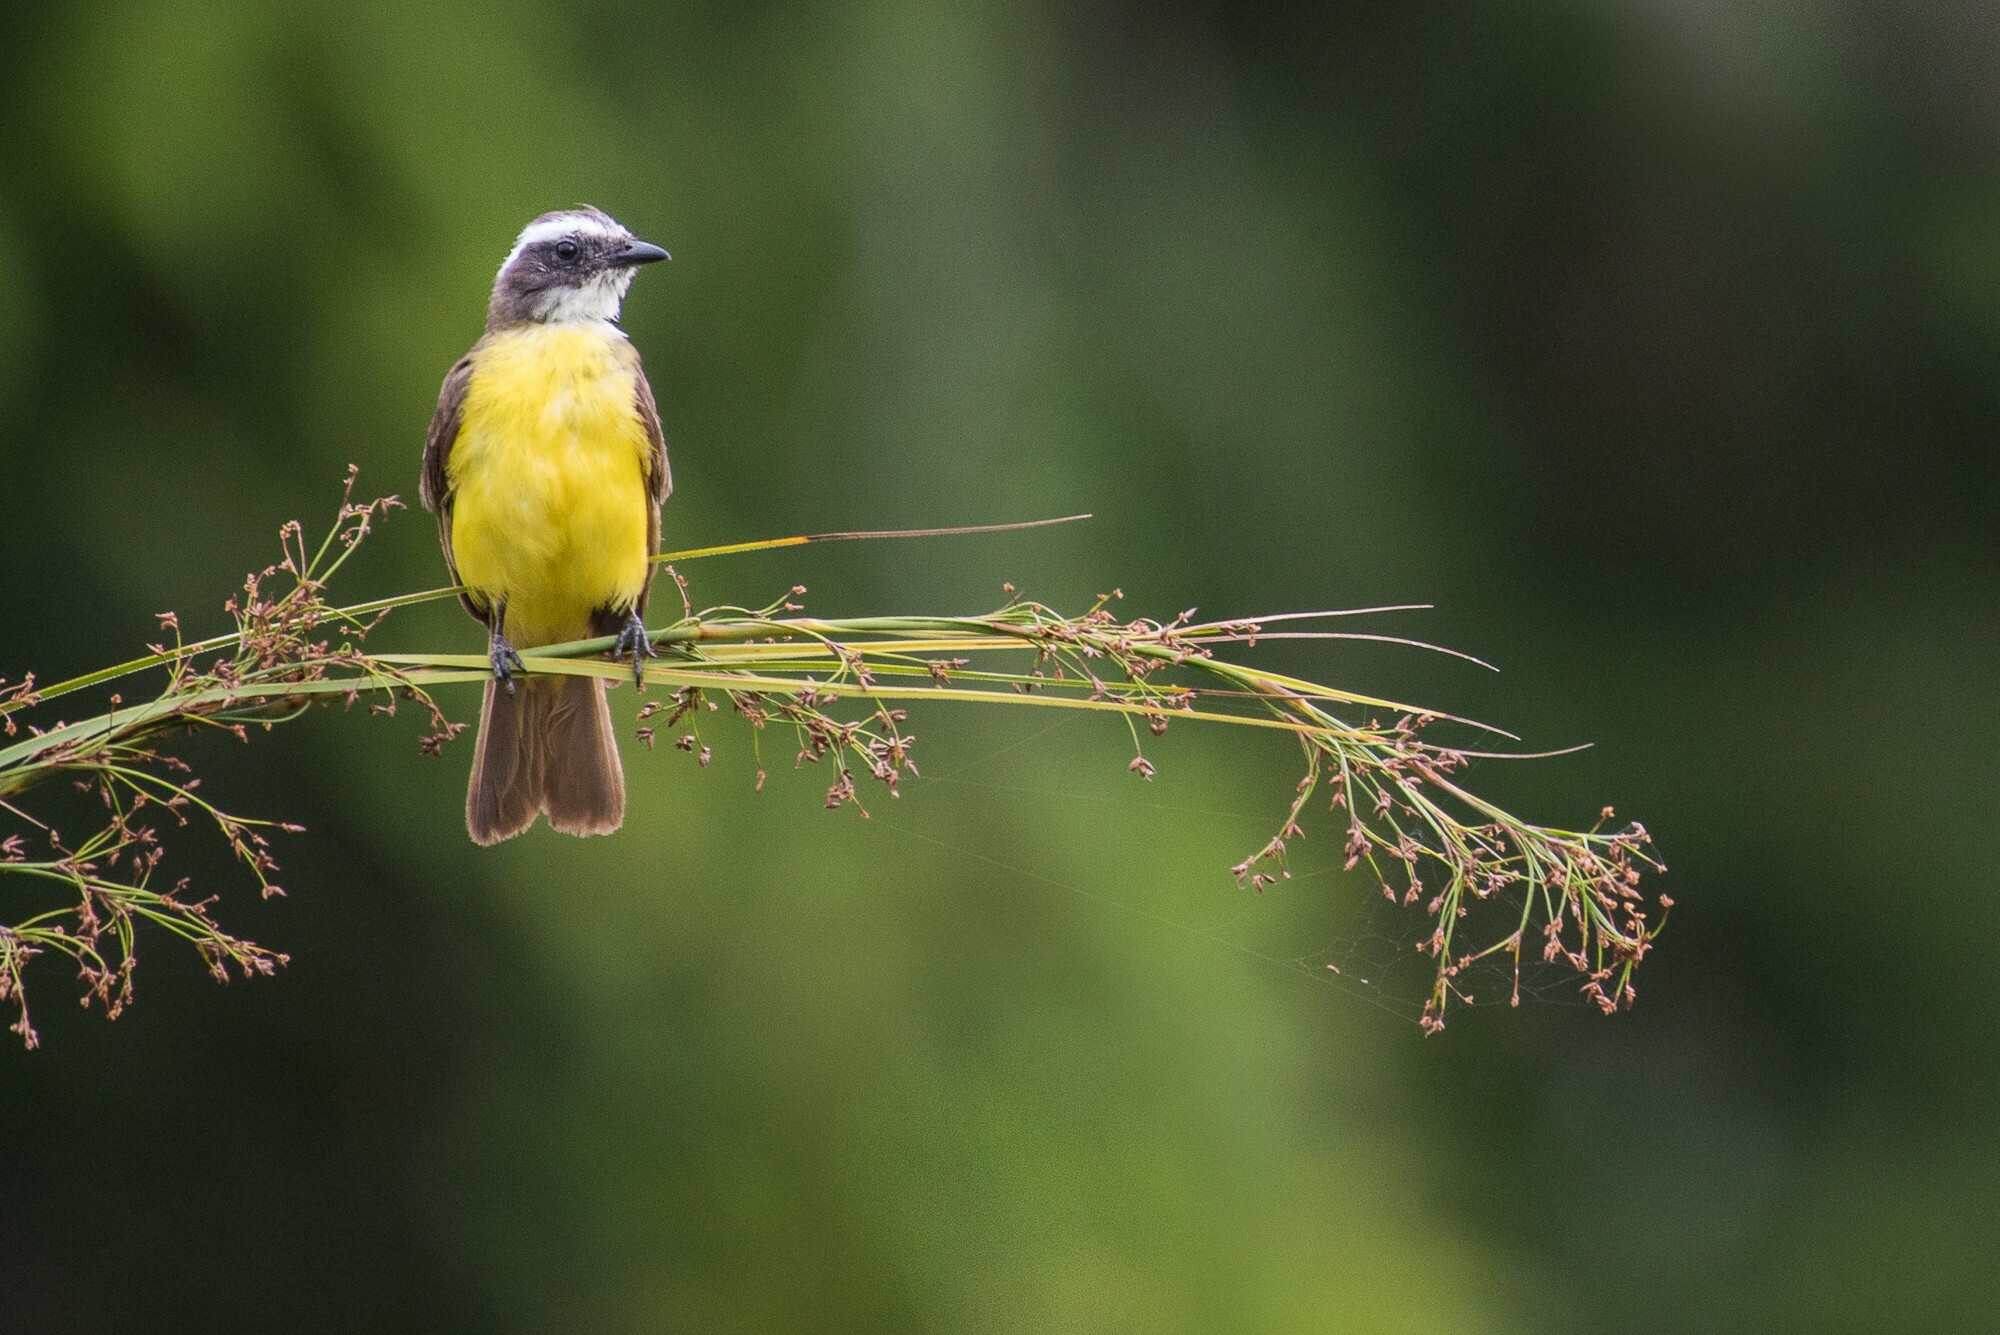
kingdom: Animalia
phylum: Chordata
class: Aves
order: Passeriformes
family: Tyrannidae
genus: Myiozetetes
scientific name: Myiozetetes similis
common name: Social flycatcher
